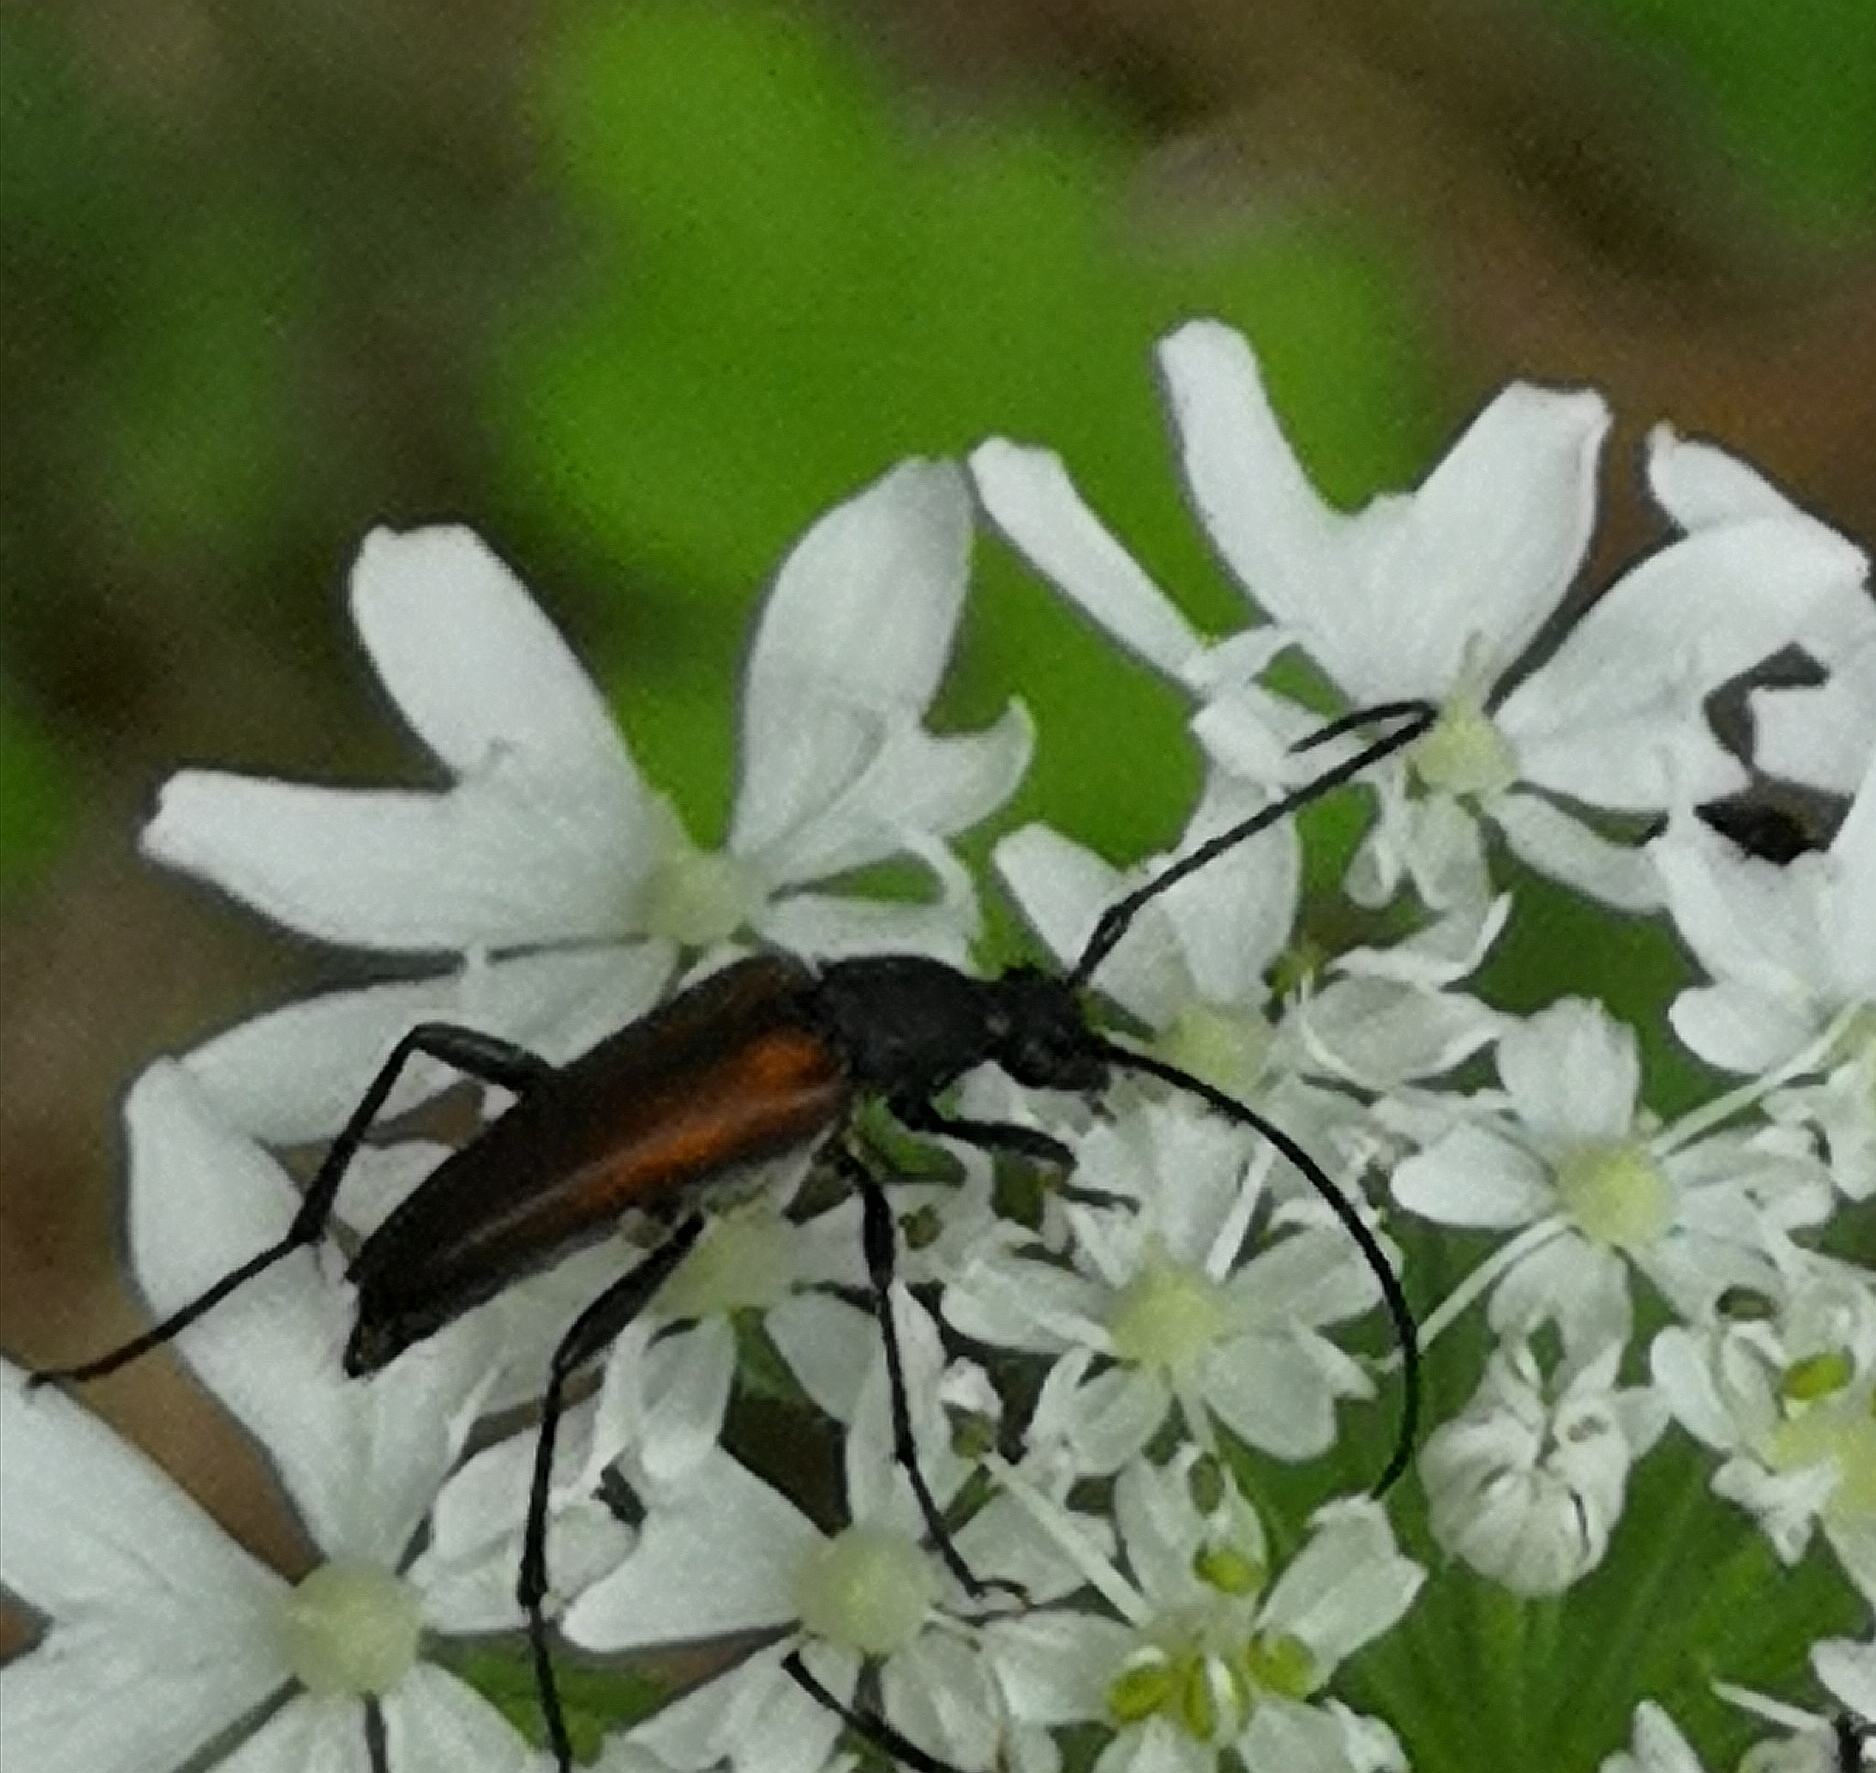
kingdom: Animalia
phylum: Arthropoda
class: Insecta
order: Coleoptera
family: Cerambycidae
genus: Stenurella
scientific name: Stenurella melanura
